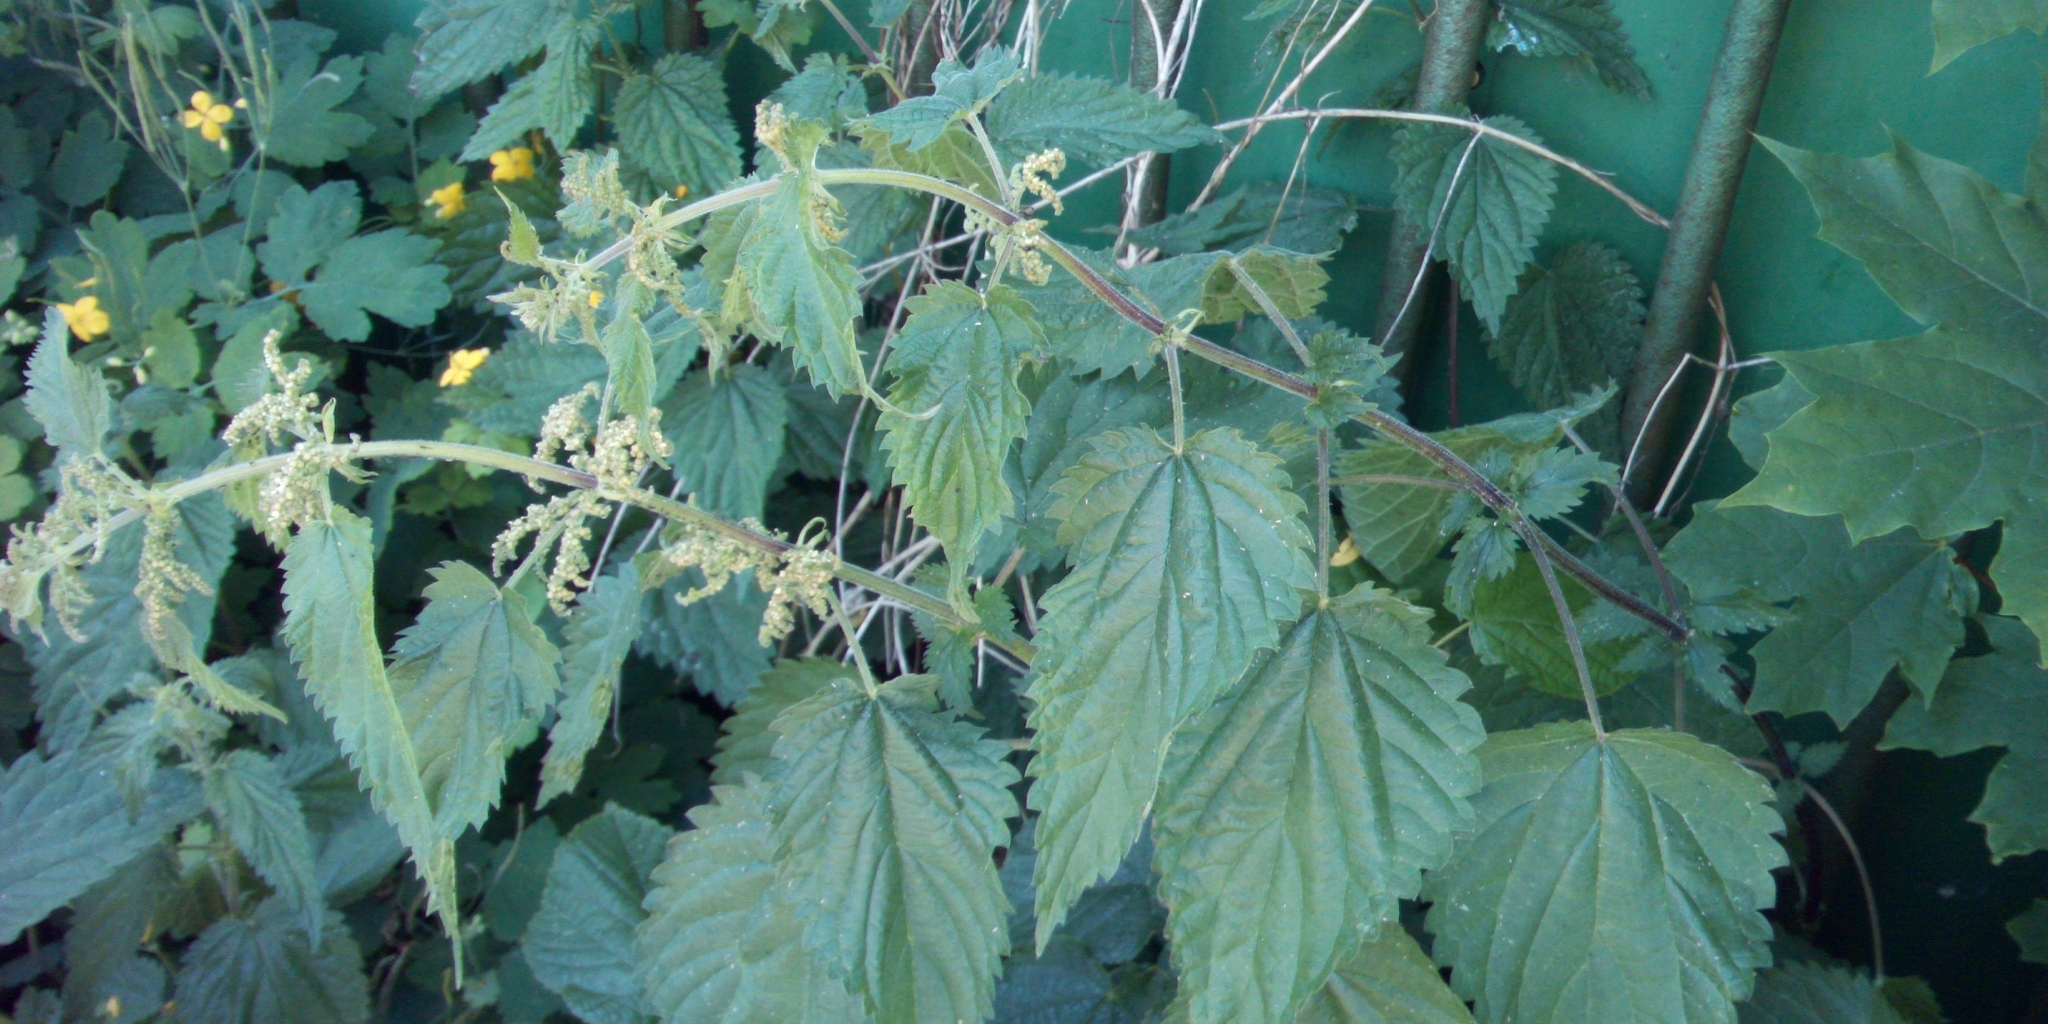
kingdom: Plantae
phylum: Tracheophyta
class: Magnoliopsida
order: Rosales
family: Urticaceae
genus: Urtica
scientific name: Urtica dioica
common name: Common nettle
